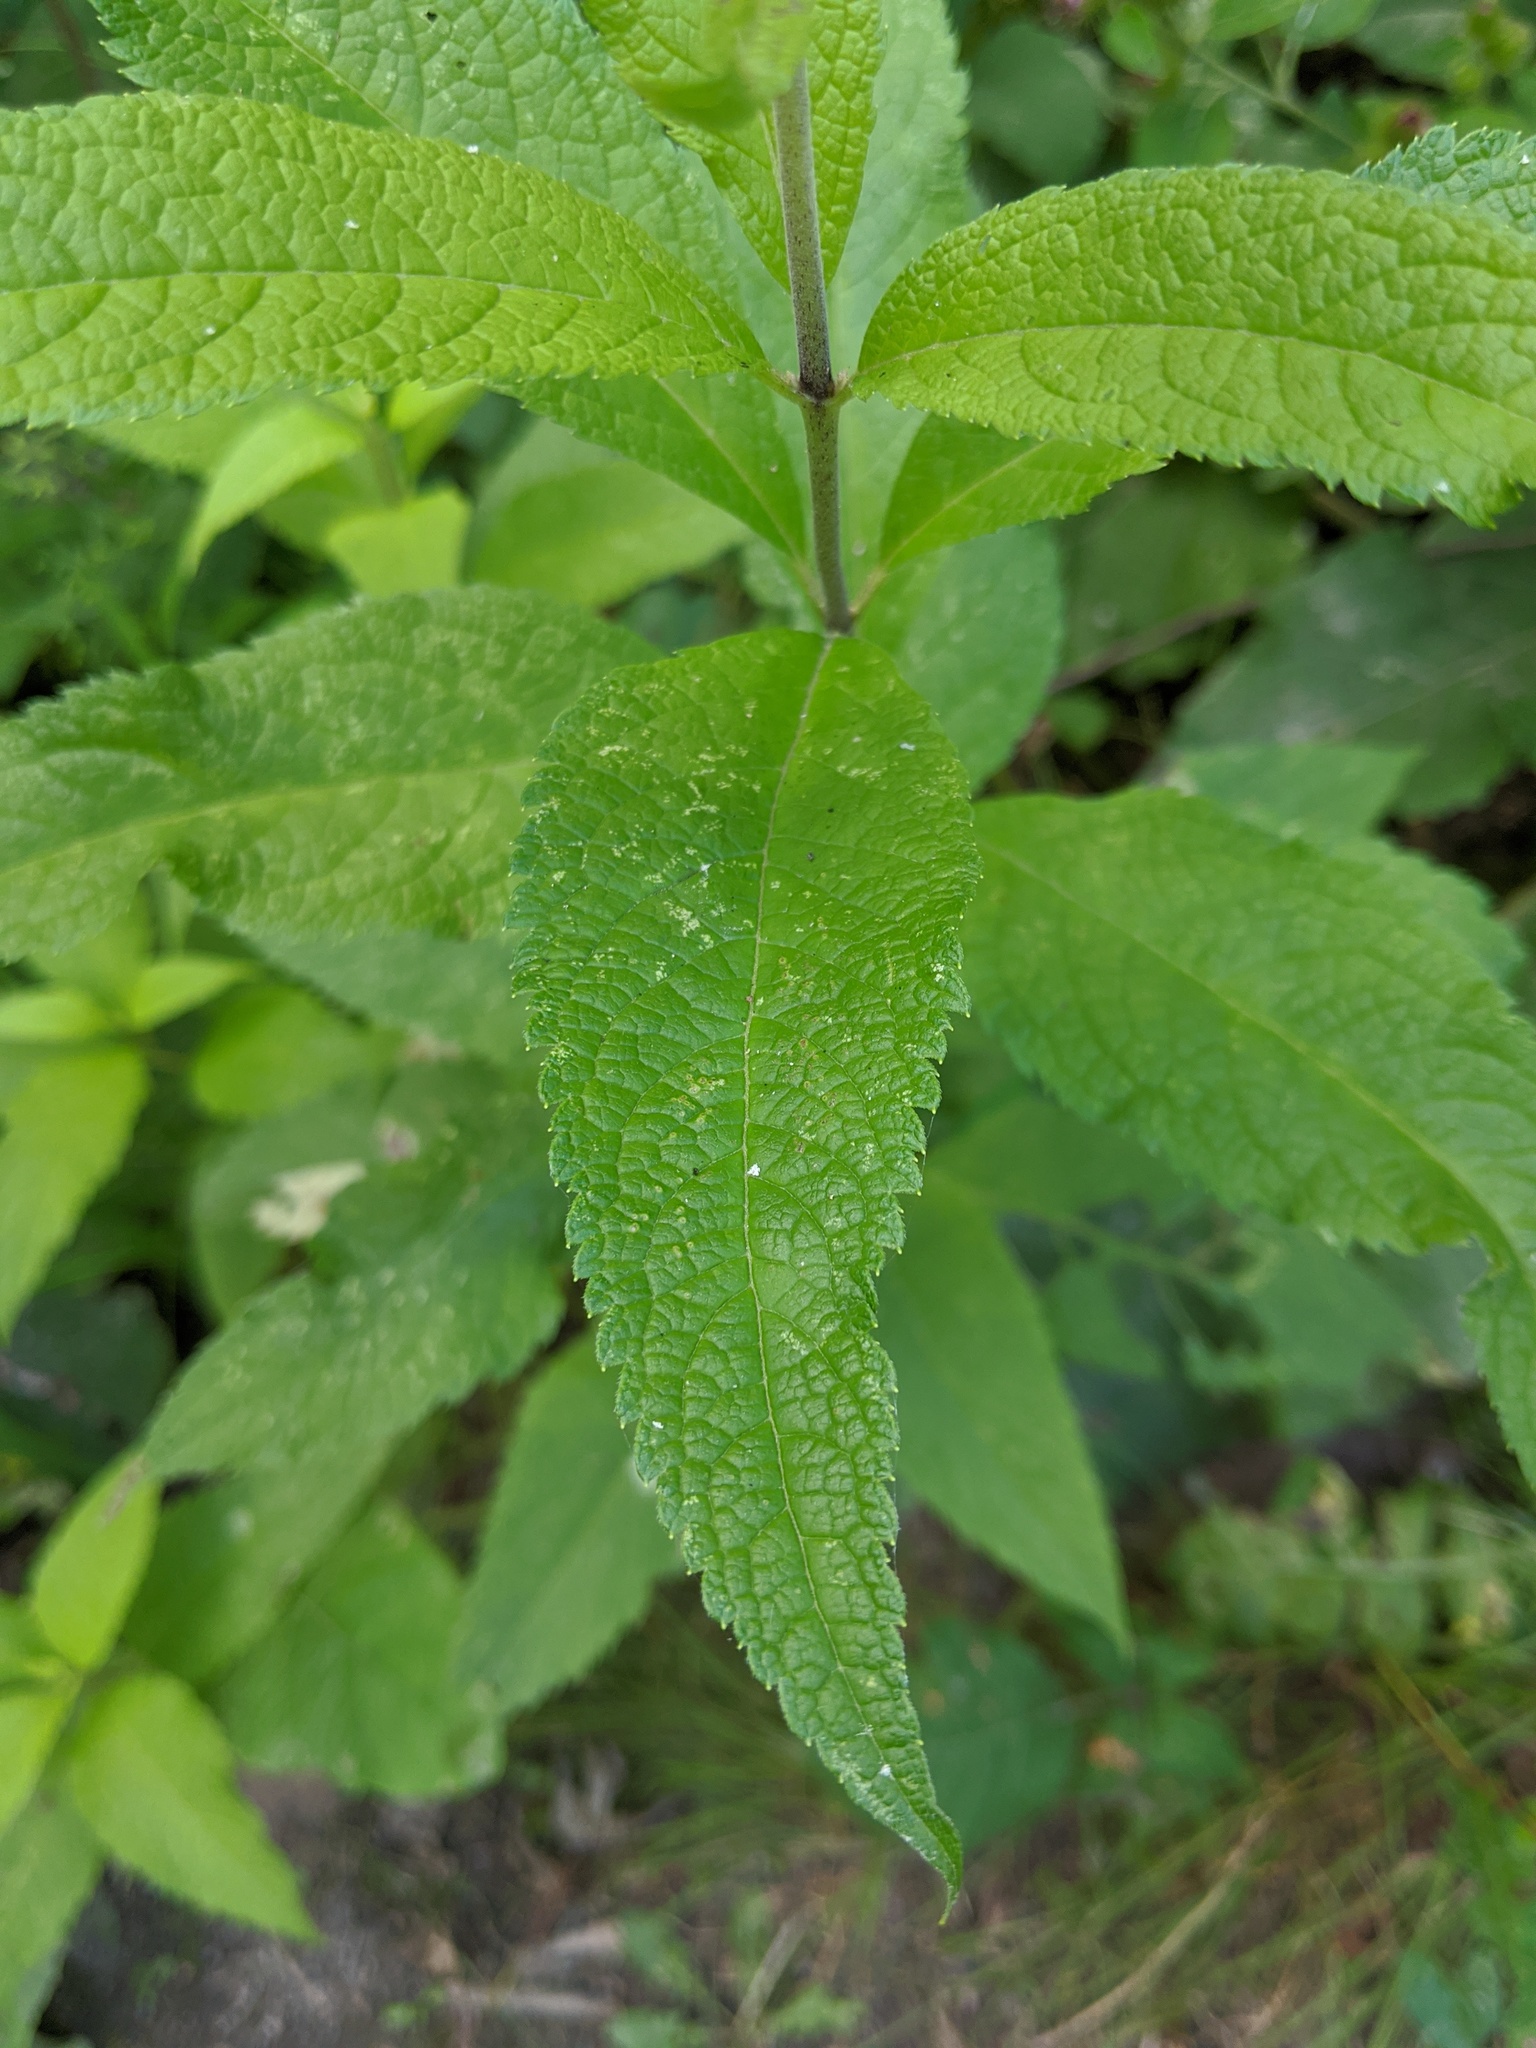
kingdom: Plantae
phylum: Tracheophyta
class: Magnoliopsida
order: Asterales
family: Asteraceae
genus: Eutrochium
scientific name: Eutrochium maculatum
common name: Spotted joe pye weed
